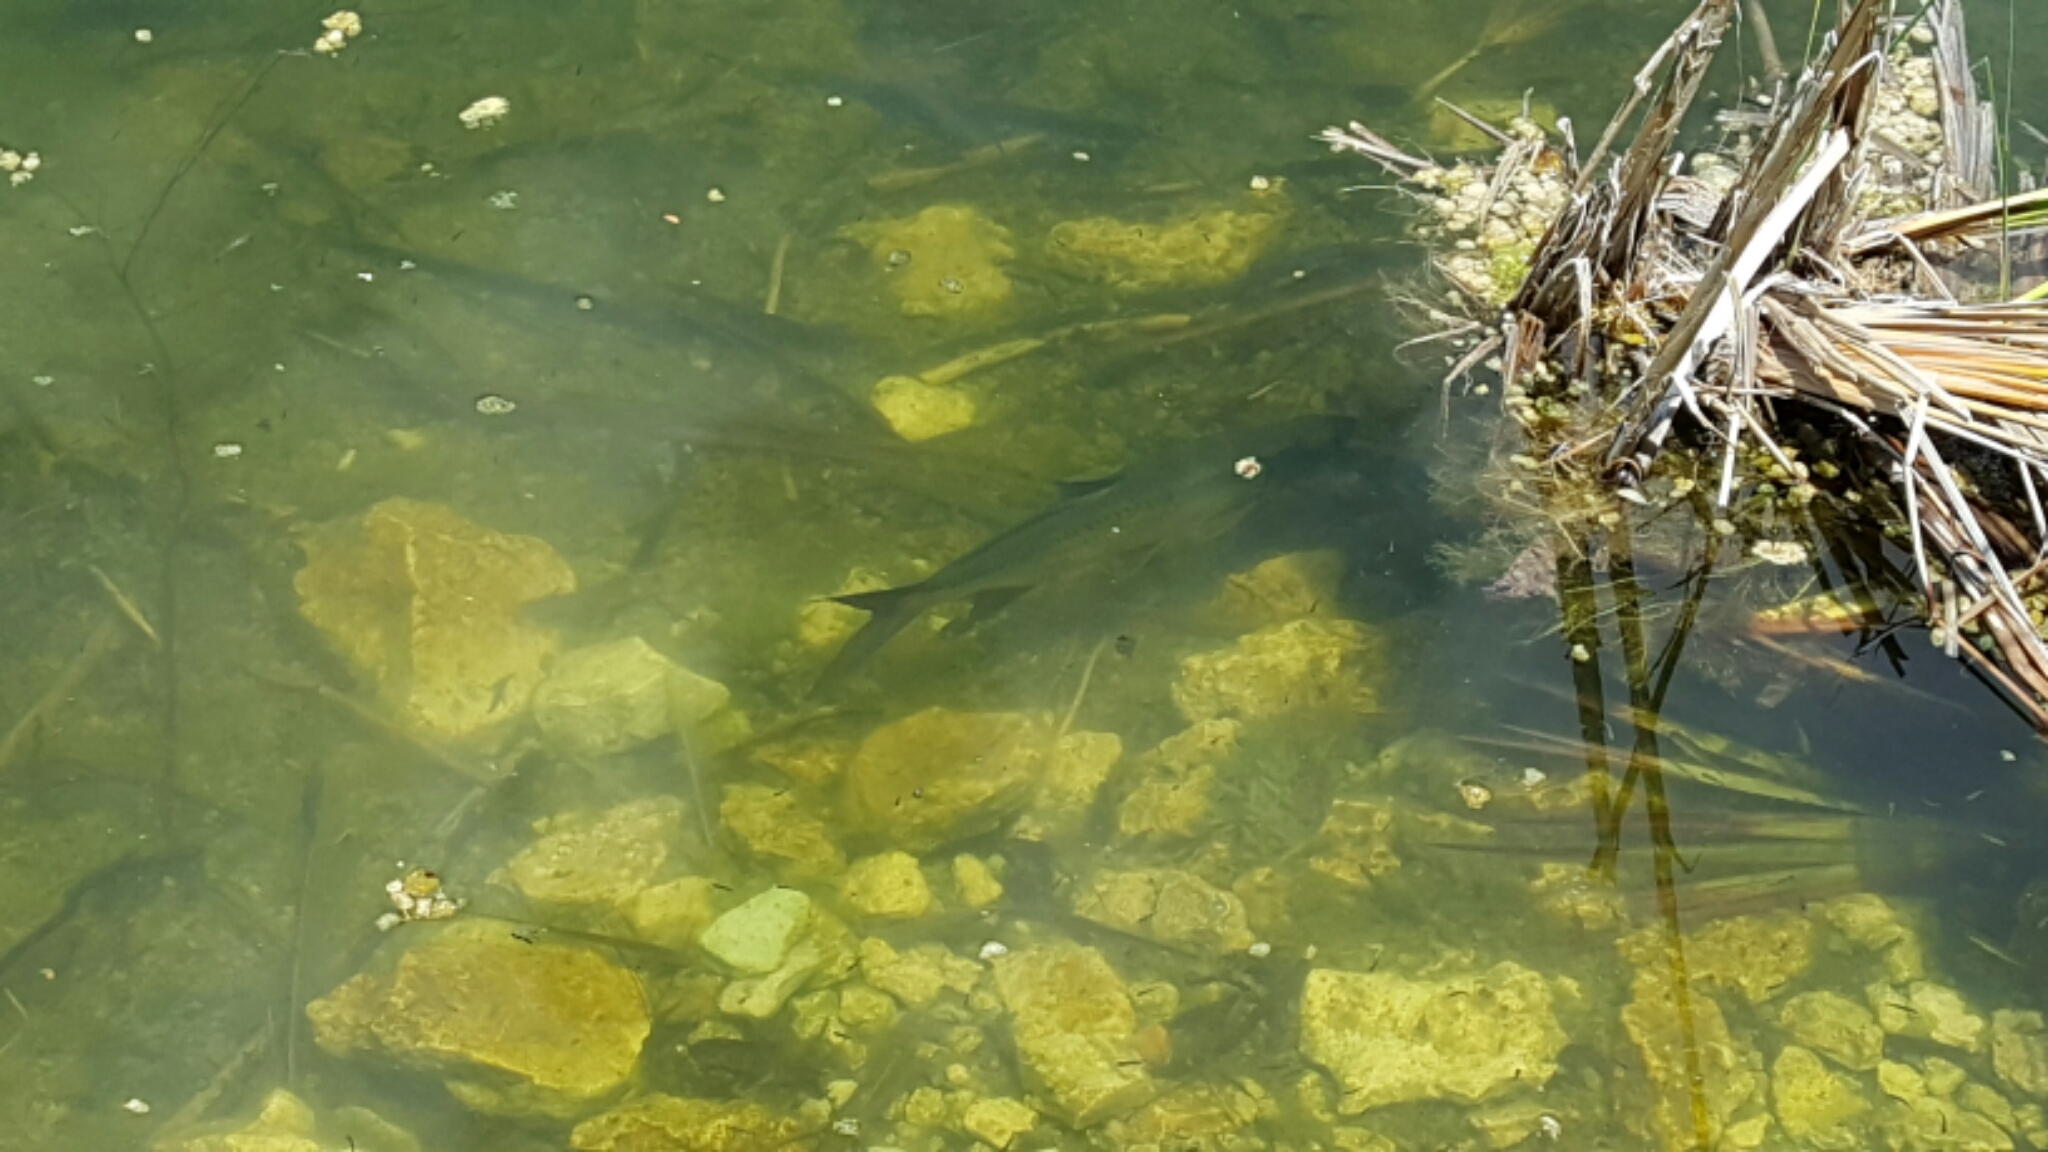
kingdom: Animalia
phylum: Chordata
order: Elopiformes
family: Megalopidae
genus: Megalops
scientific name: Megalops atlanticus
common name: Tarpon
